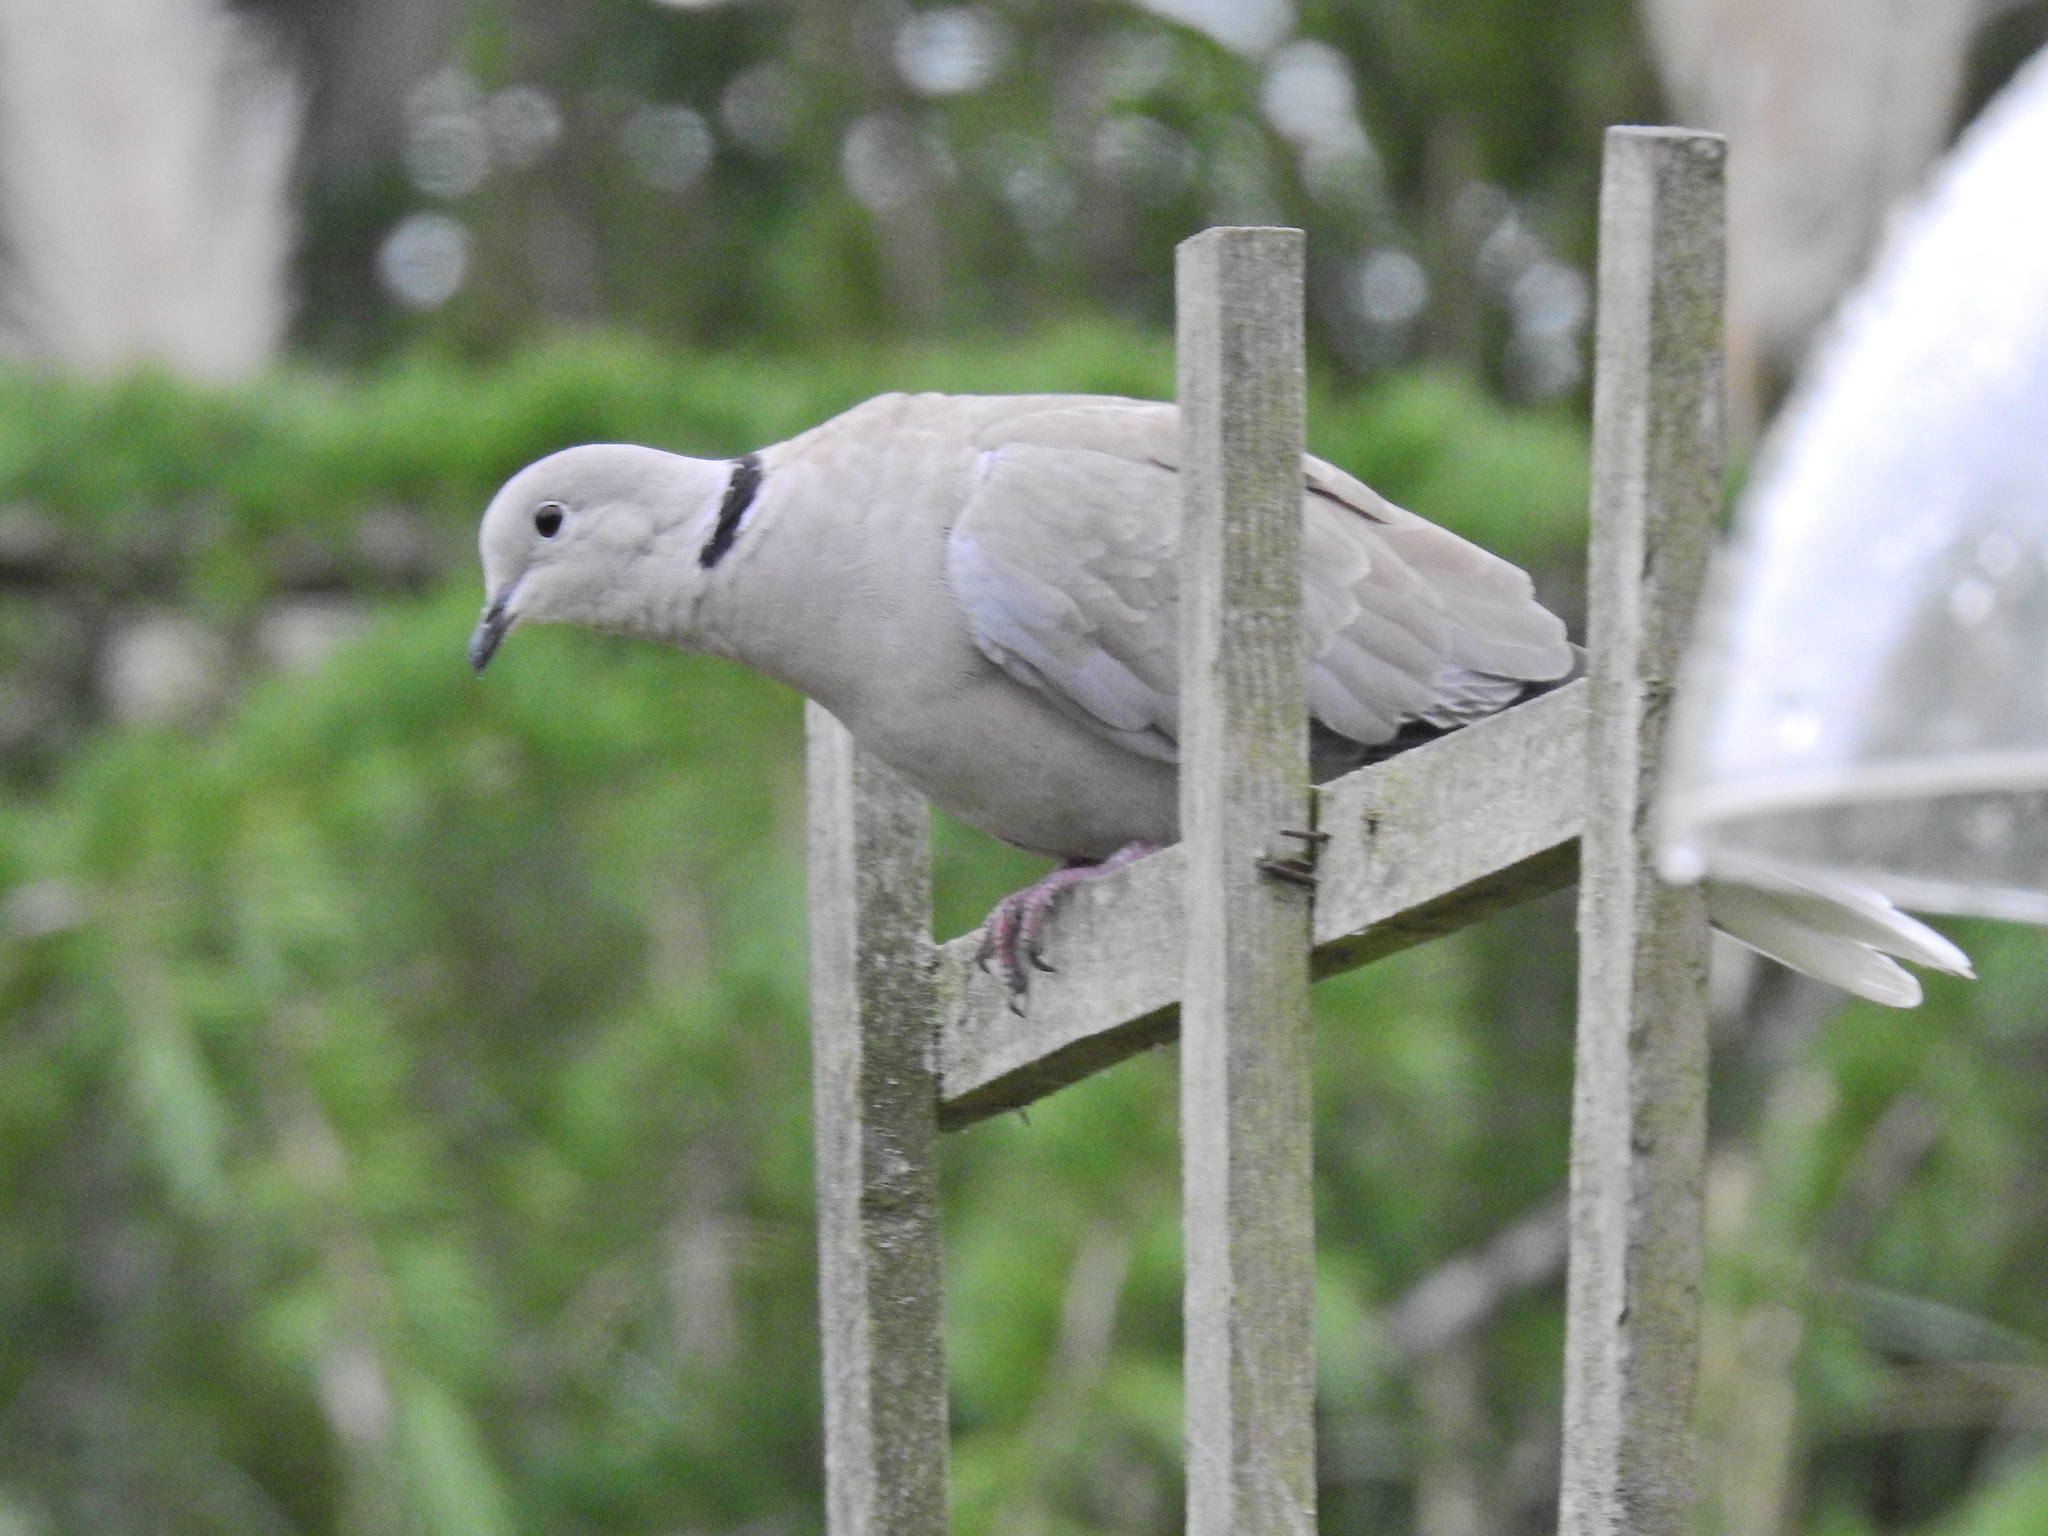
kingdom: Animalia
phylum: Chordata
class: Aves
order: Columbiformes
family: Columbidae
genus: Streptopelia
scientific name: Streptopelia decaocto
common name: Eurasian collared dove
